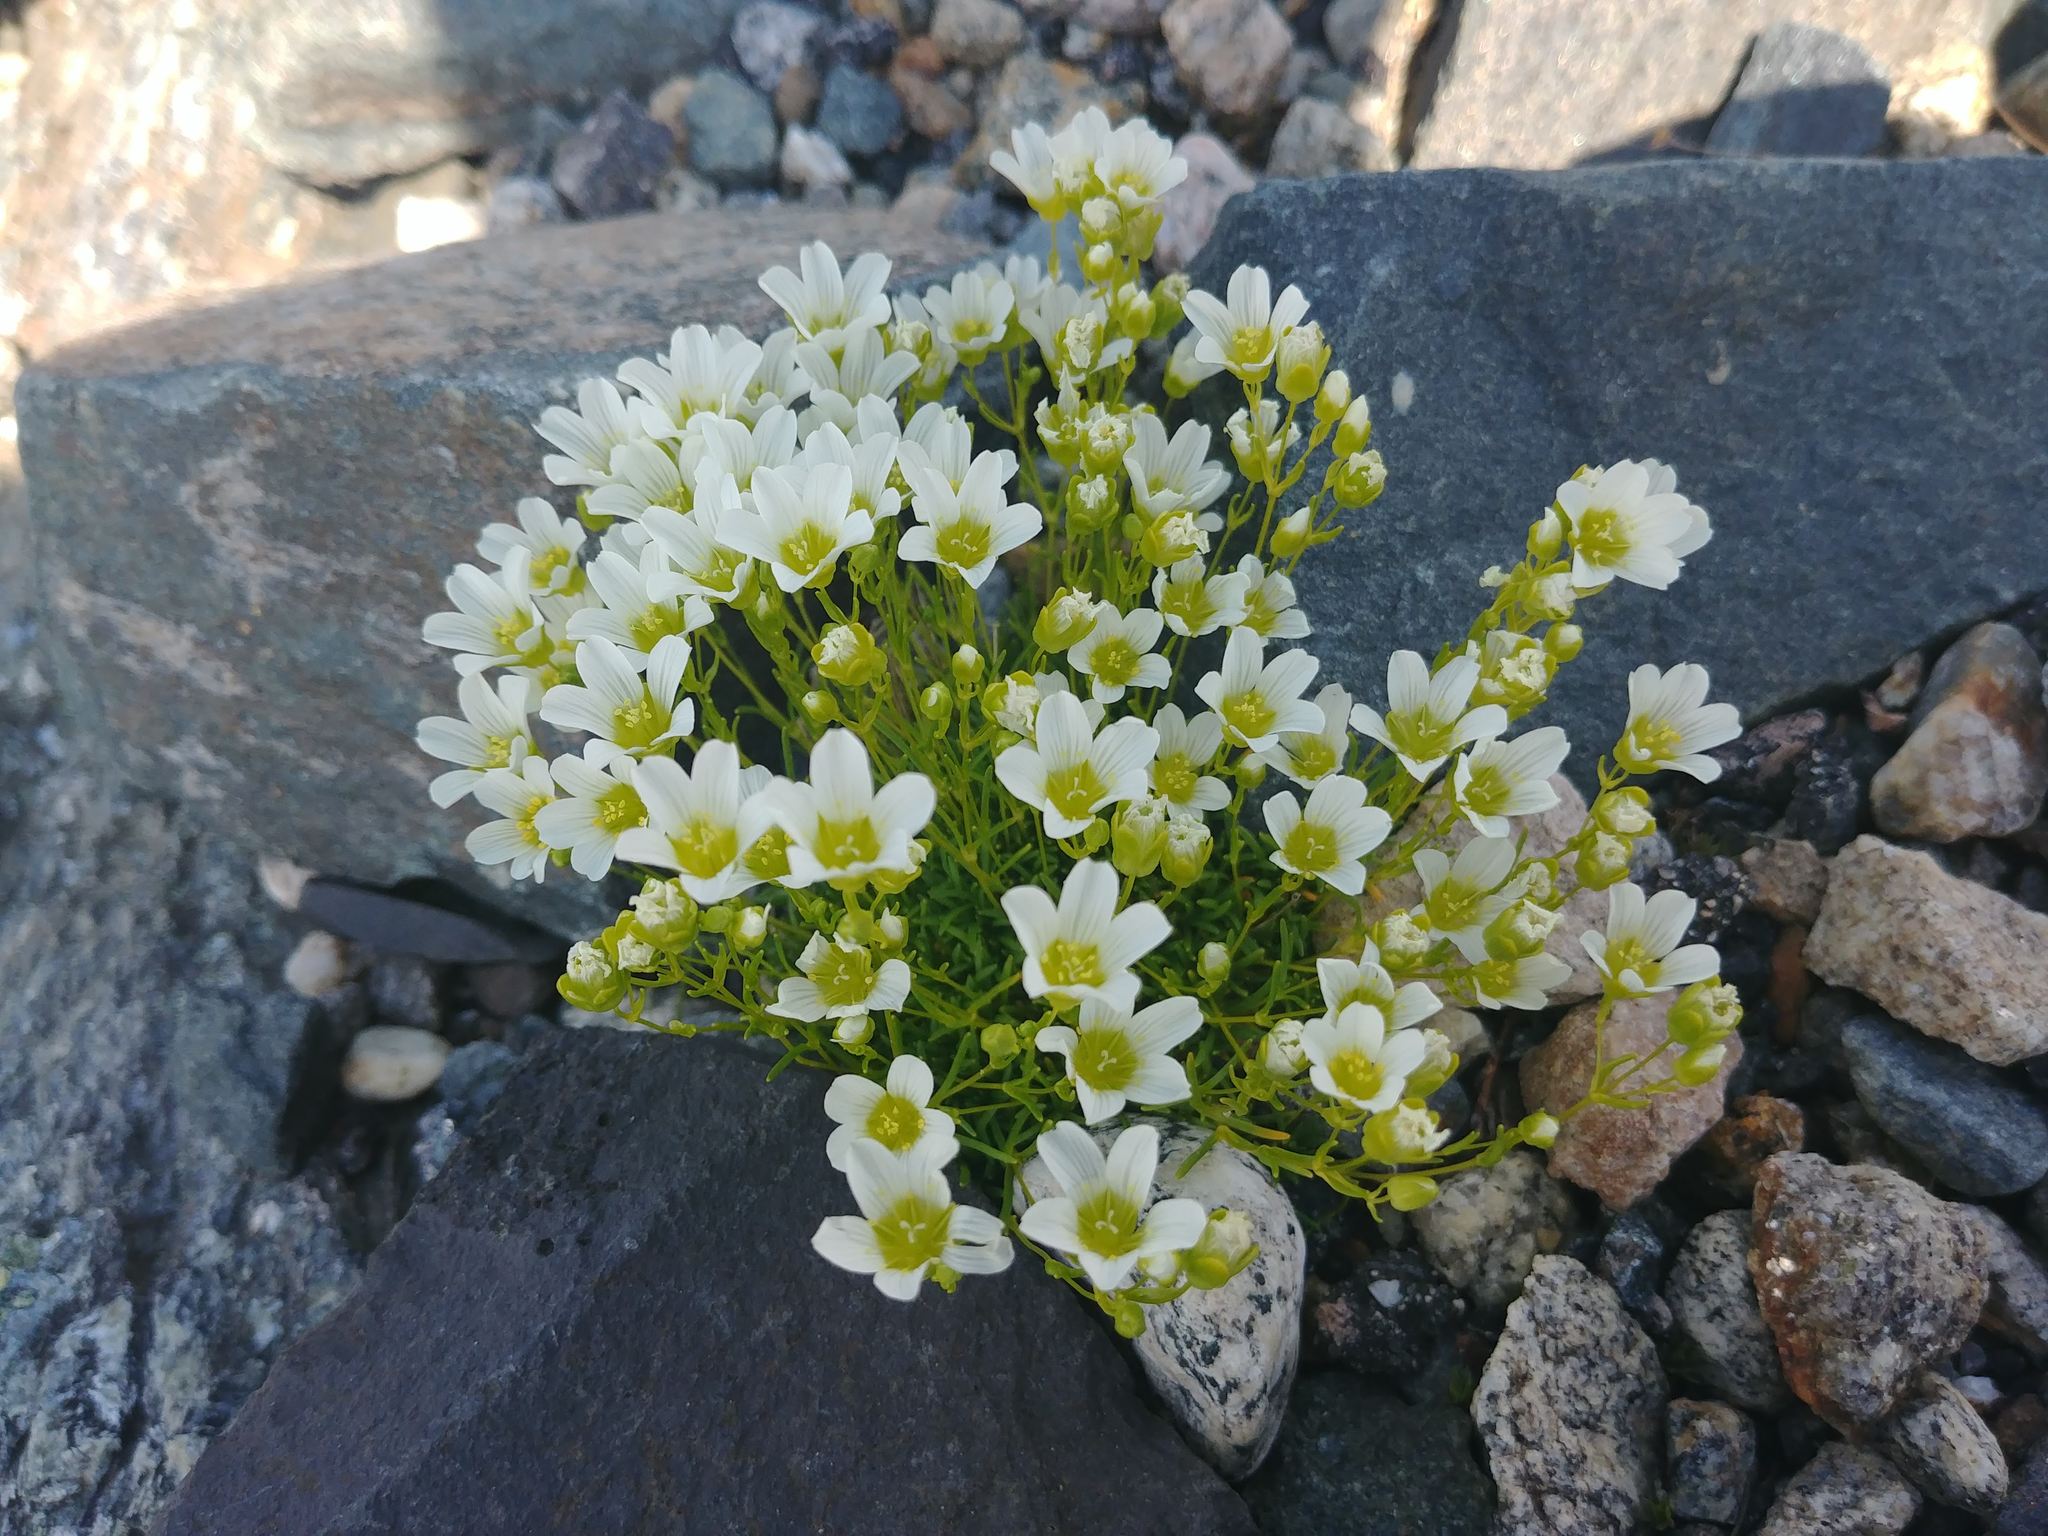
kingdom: Plantae
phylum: Tracheophyta
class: Magnoliopsida
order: Caryophyllales
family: Caryophyllaceae
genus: Geocarpon
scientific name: Geocarpon groenlandicum
